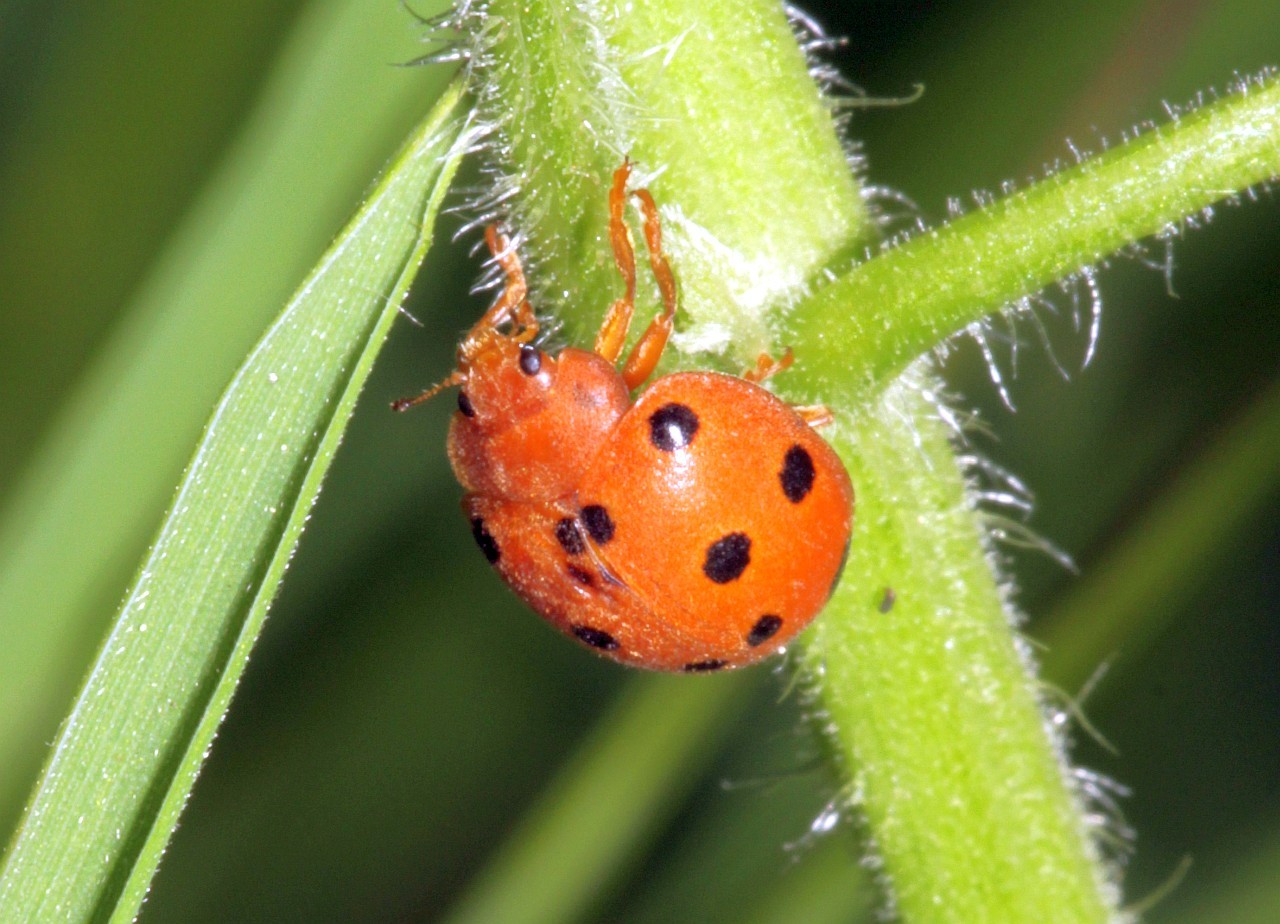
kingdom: Animalia
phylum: Arthropoda
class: Insecta
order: Coleoptera
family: Coccinellidae
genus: Henosepilachna
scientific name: Henosepilachna argus
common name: Bryony ladybird
